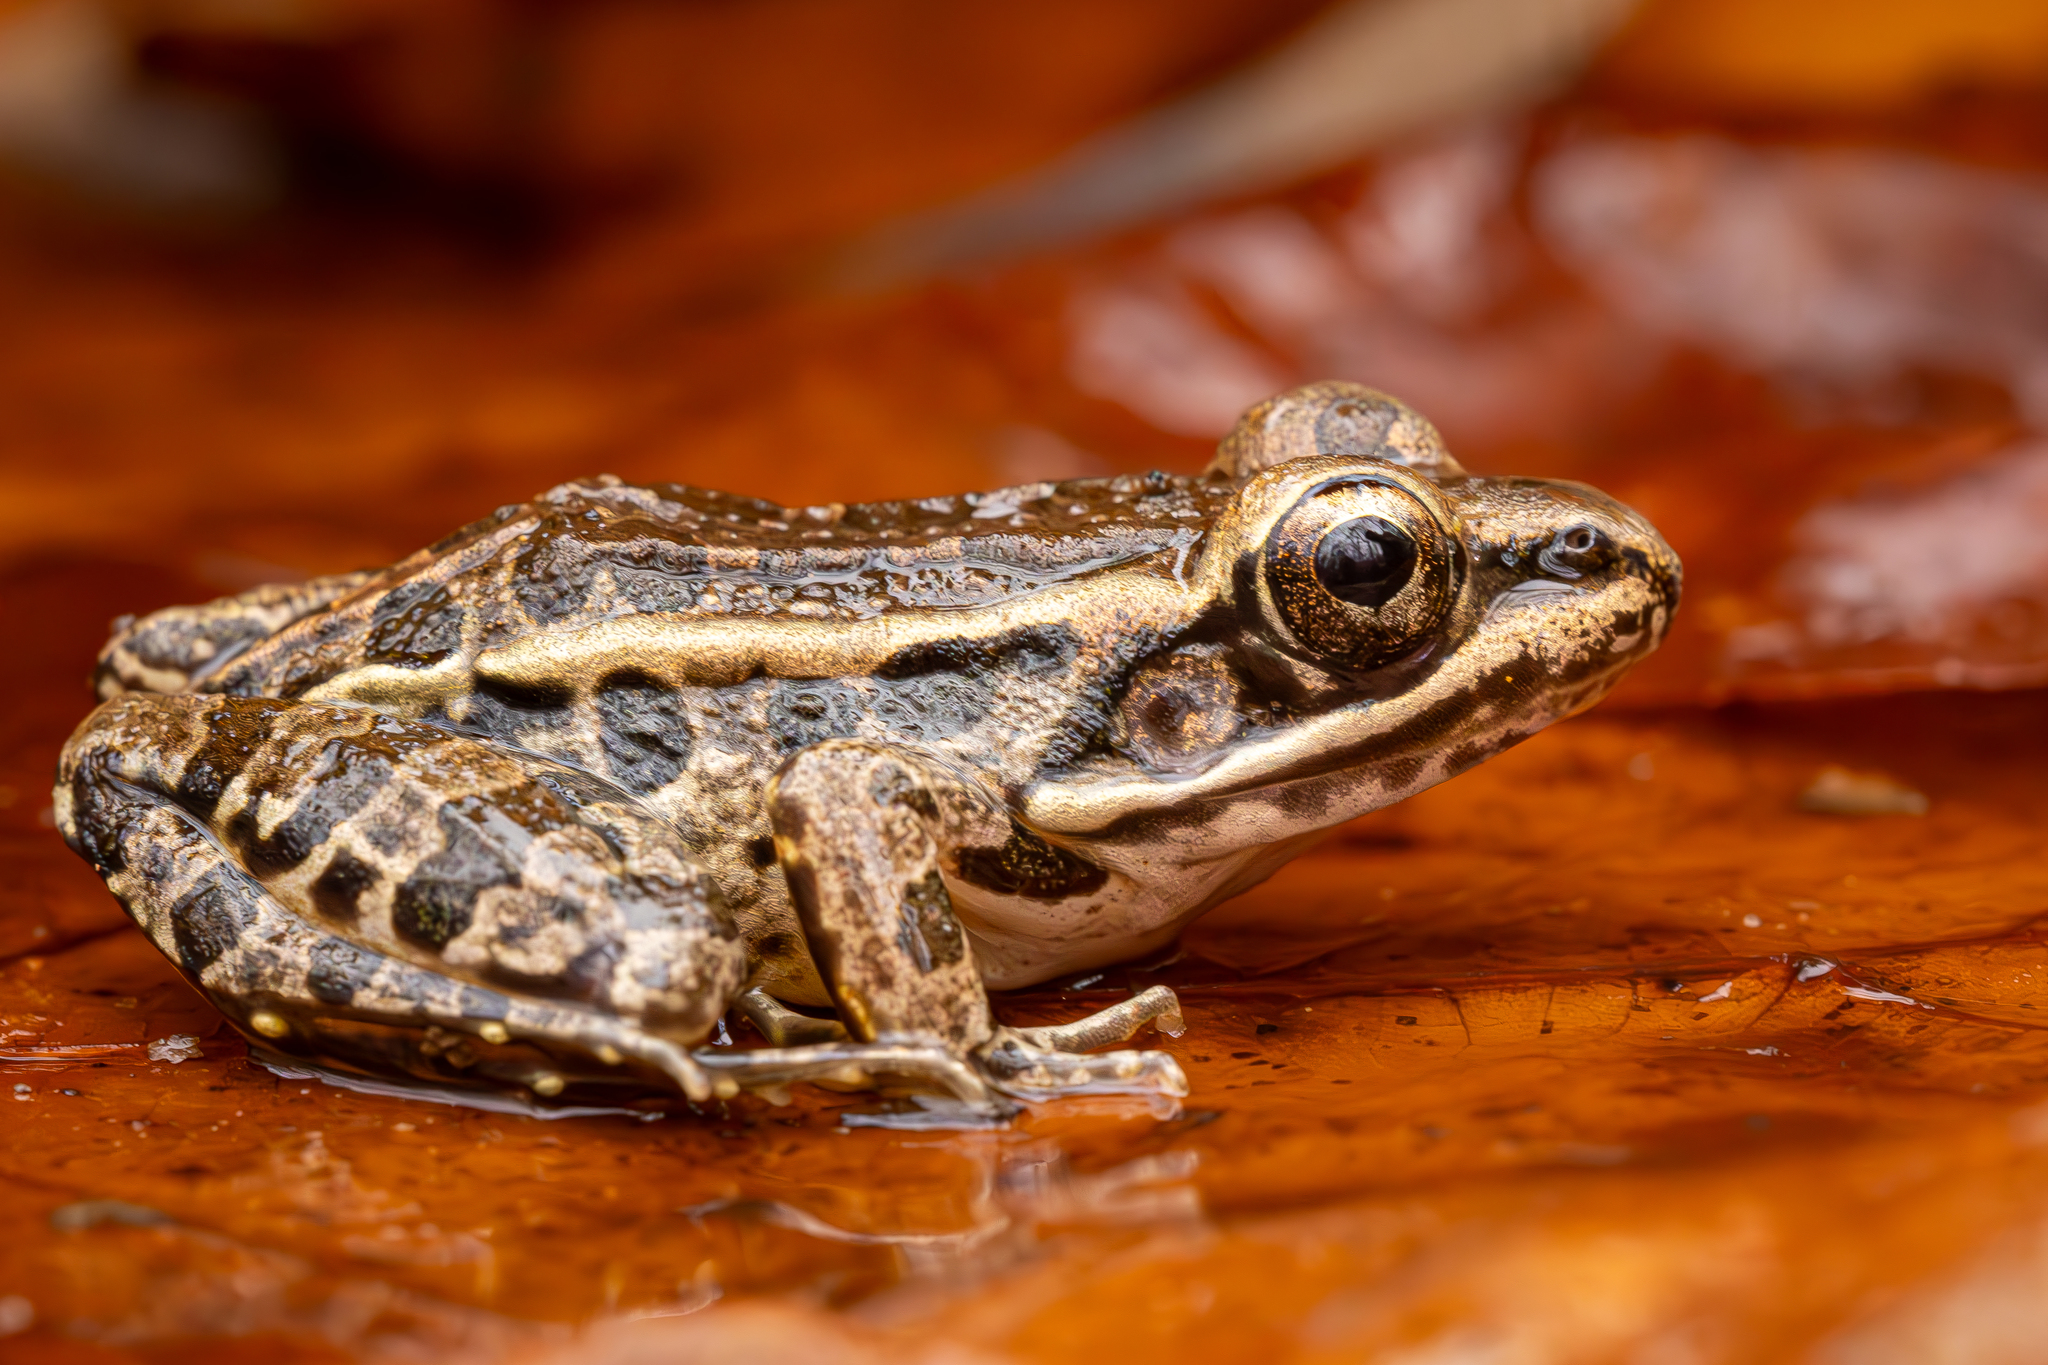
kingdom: Animalia
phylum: Chordata
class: Amphibia
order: Anura
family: Ranidae
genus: Lithobates
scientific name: Lithobates palustris
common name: Pickerel frog
